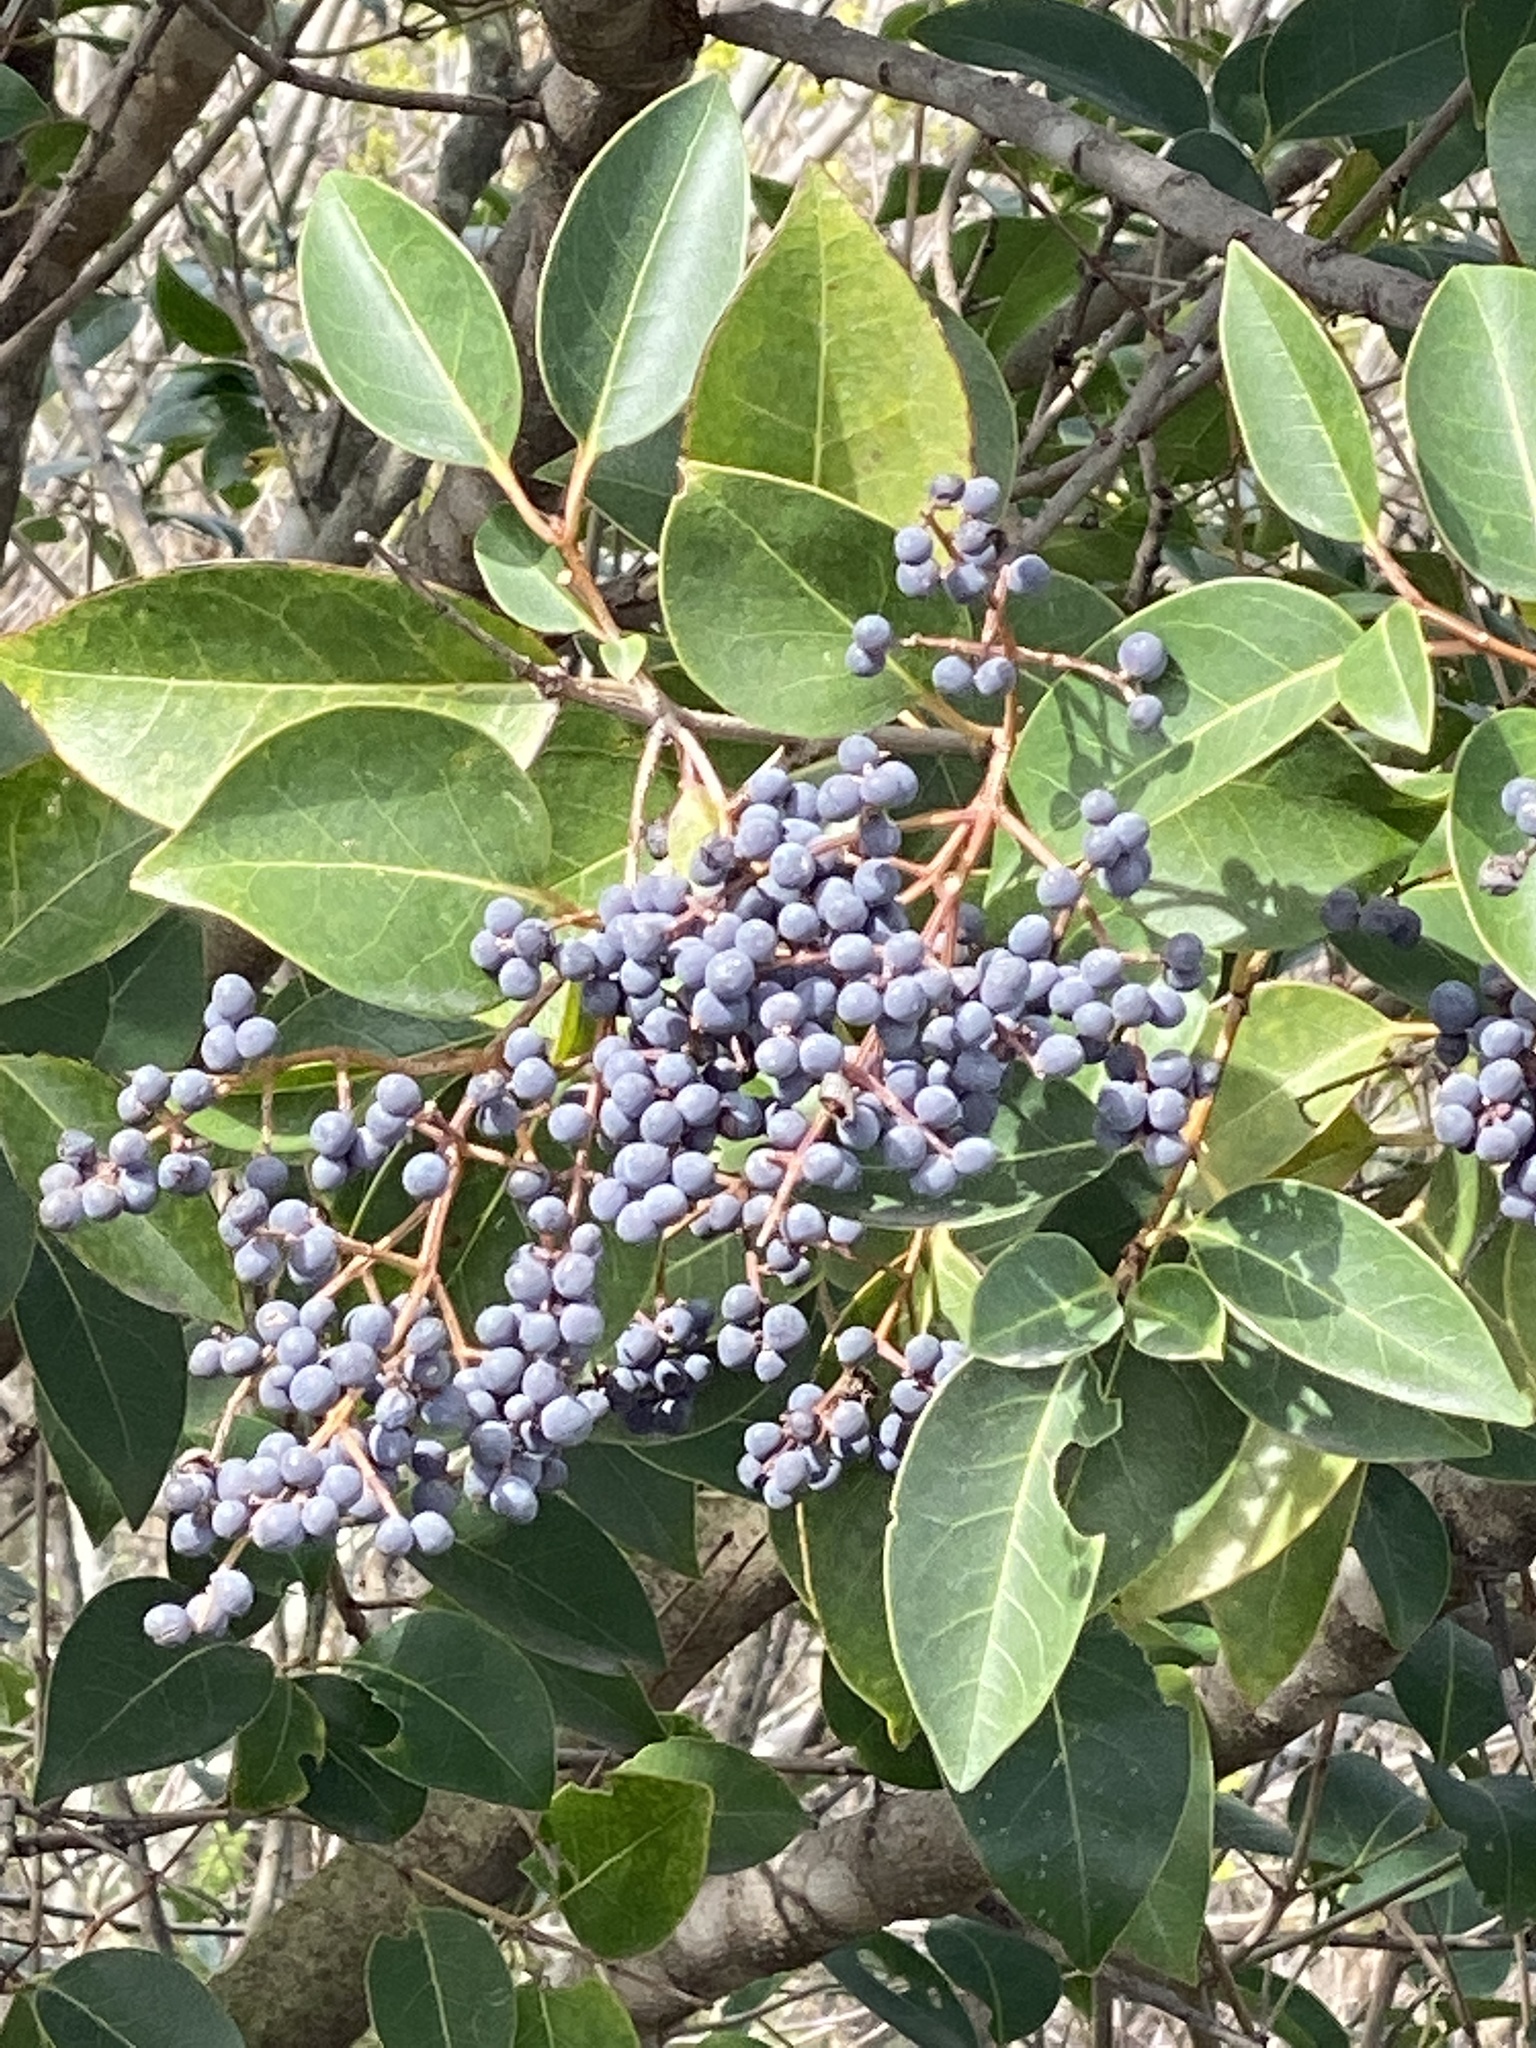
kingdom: Plantae
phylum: Tracheophyta
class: Magnoliopsida
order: Lamiales
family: Oleaceae
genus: Ligustrum
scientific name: Ligustrum lucidum
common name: Glossy privet
